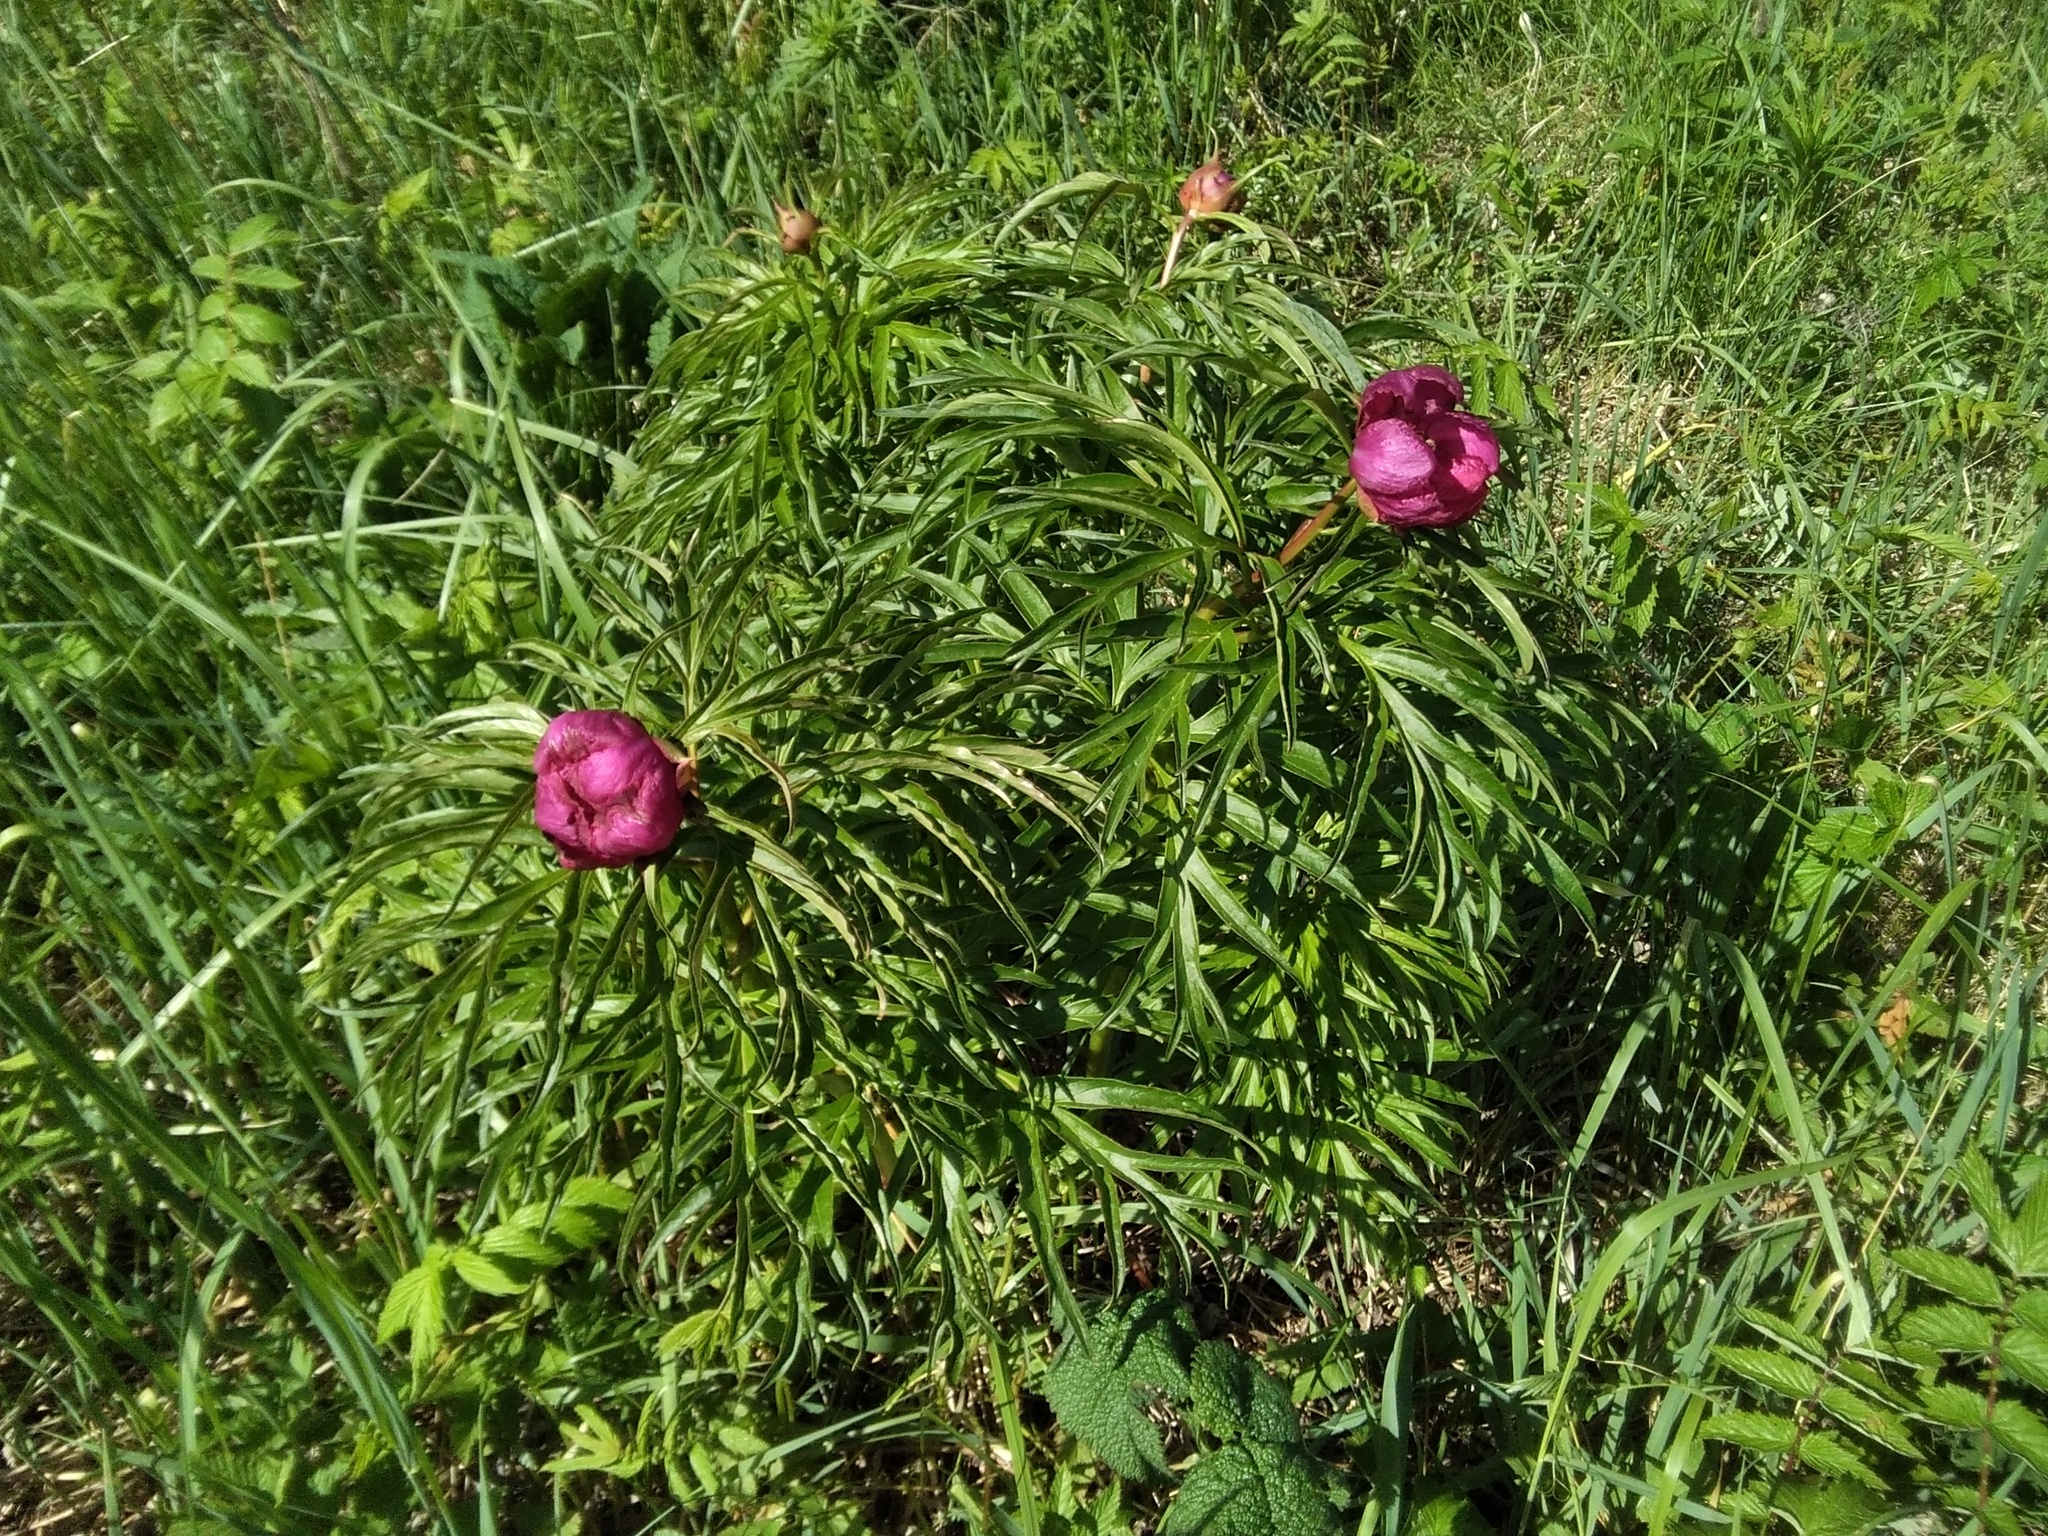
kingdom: Plantae
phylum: Tracheophyta
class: Magnoliopsida
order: Saxifragales
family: Paeoniaceae
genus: Paeonia
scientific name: Paeonia anomala
